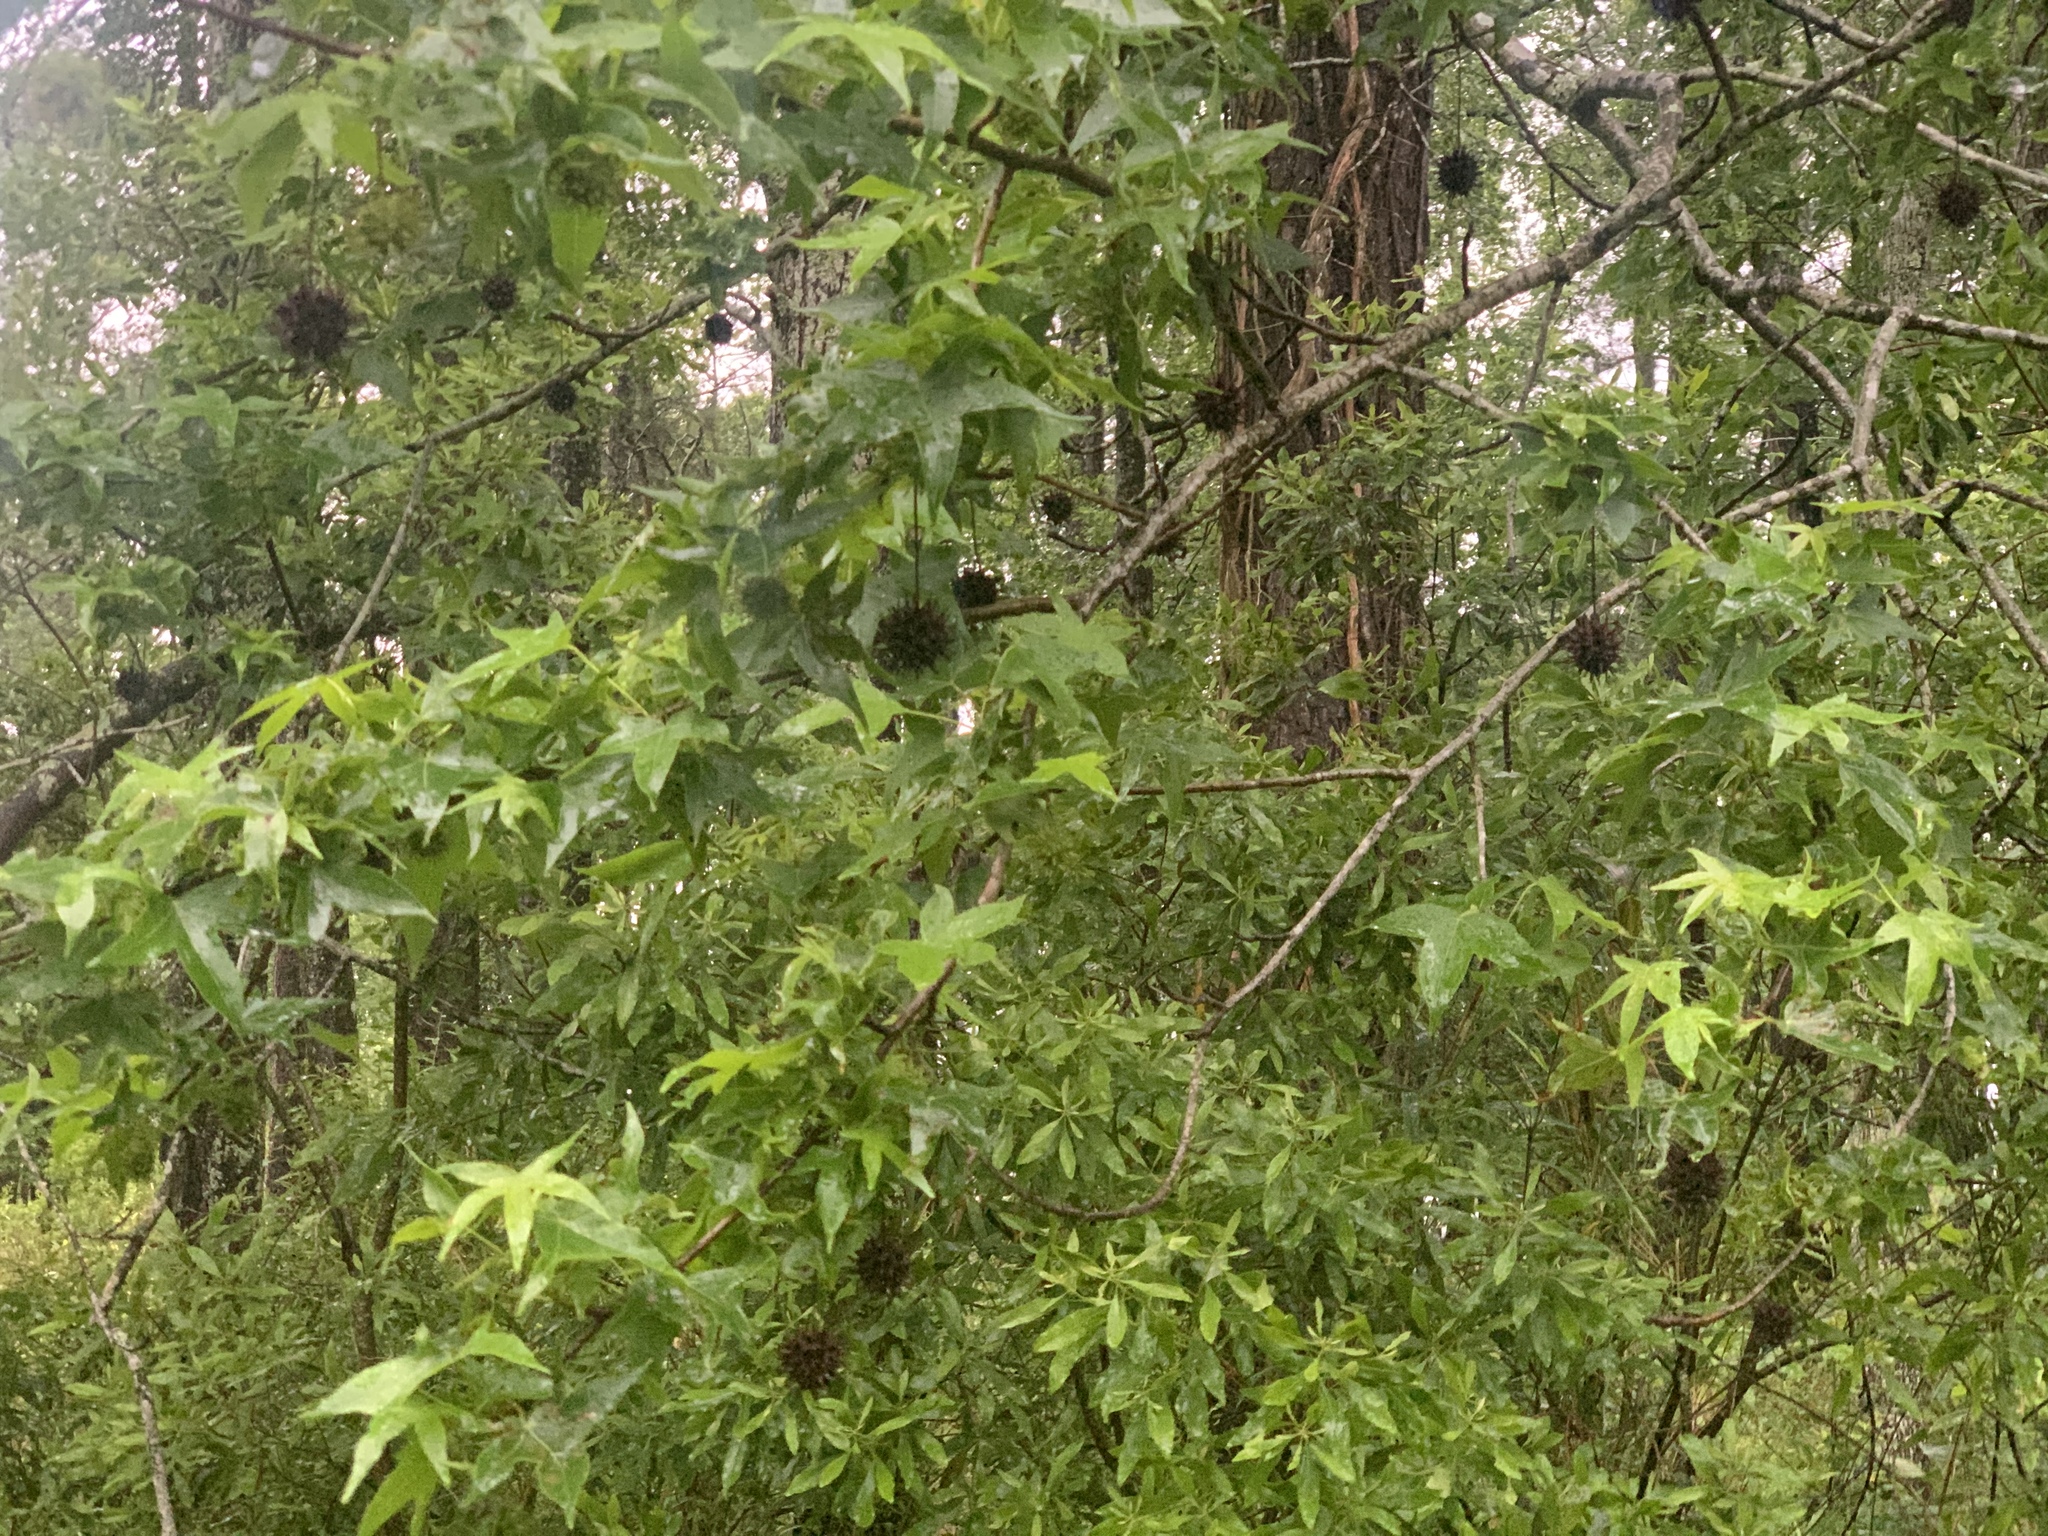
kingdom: Plantae
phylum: Tracheophyta
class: Magnoliopsida
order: Saxifragales
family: Altingiaceae
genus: Liquidambar
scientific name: Liquidambar styraciflua
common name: Sweet gum
